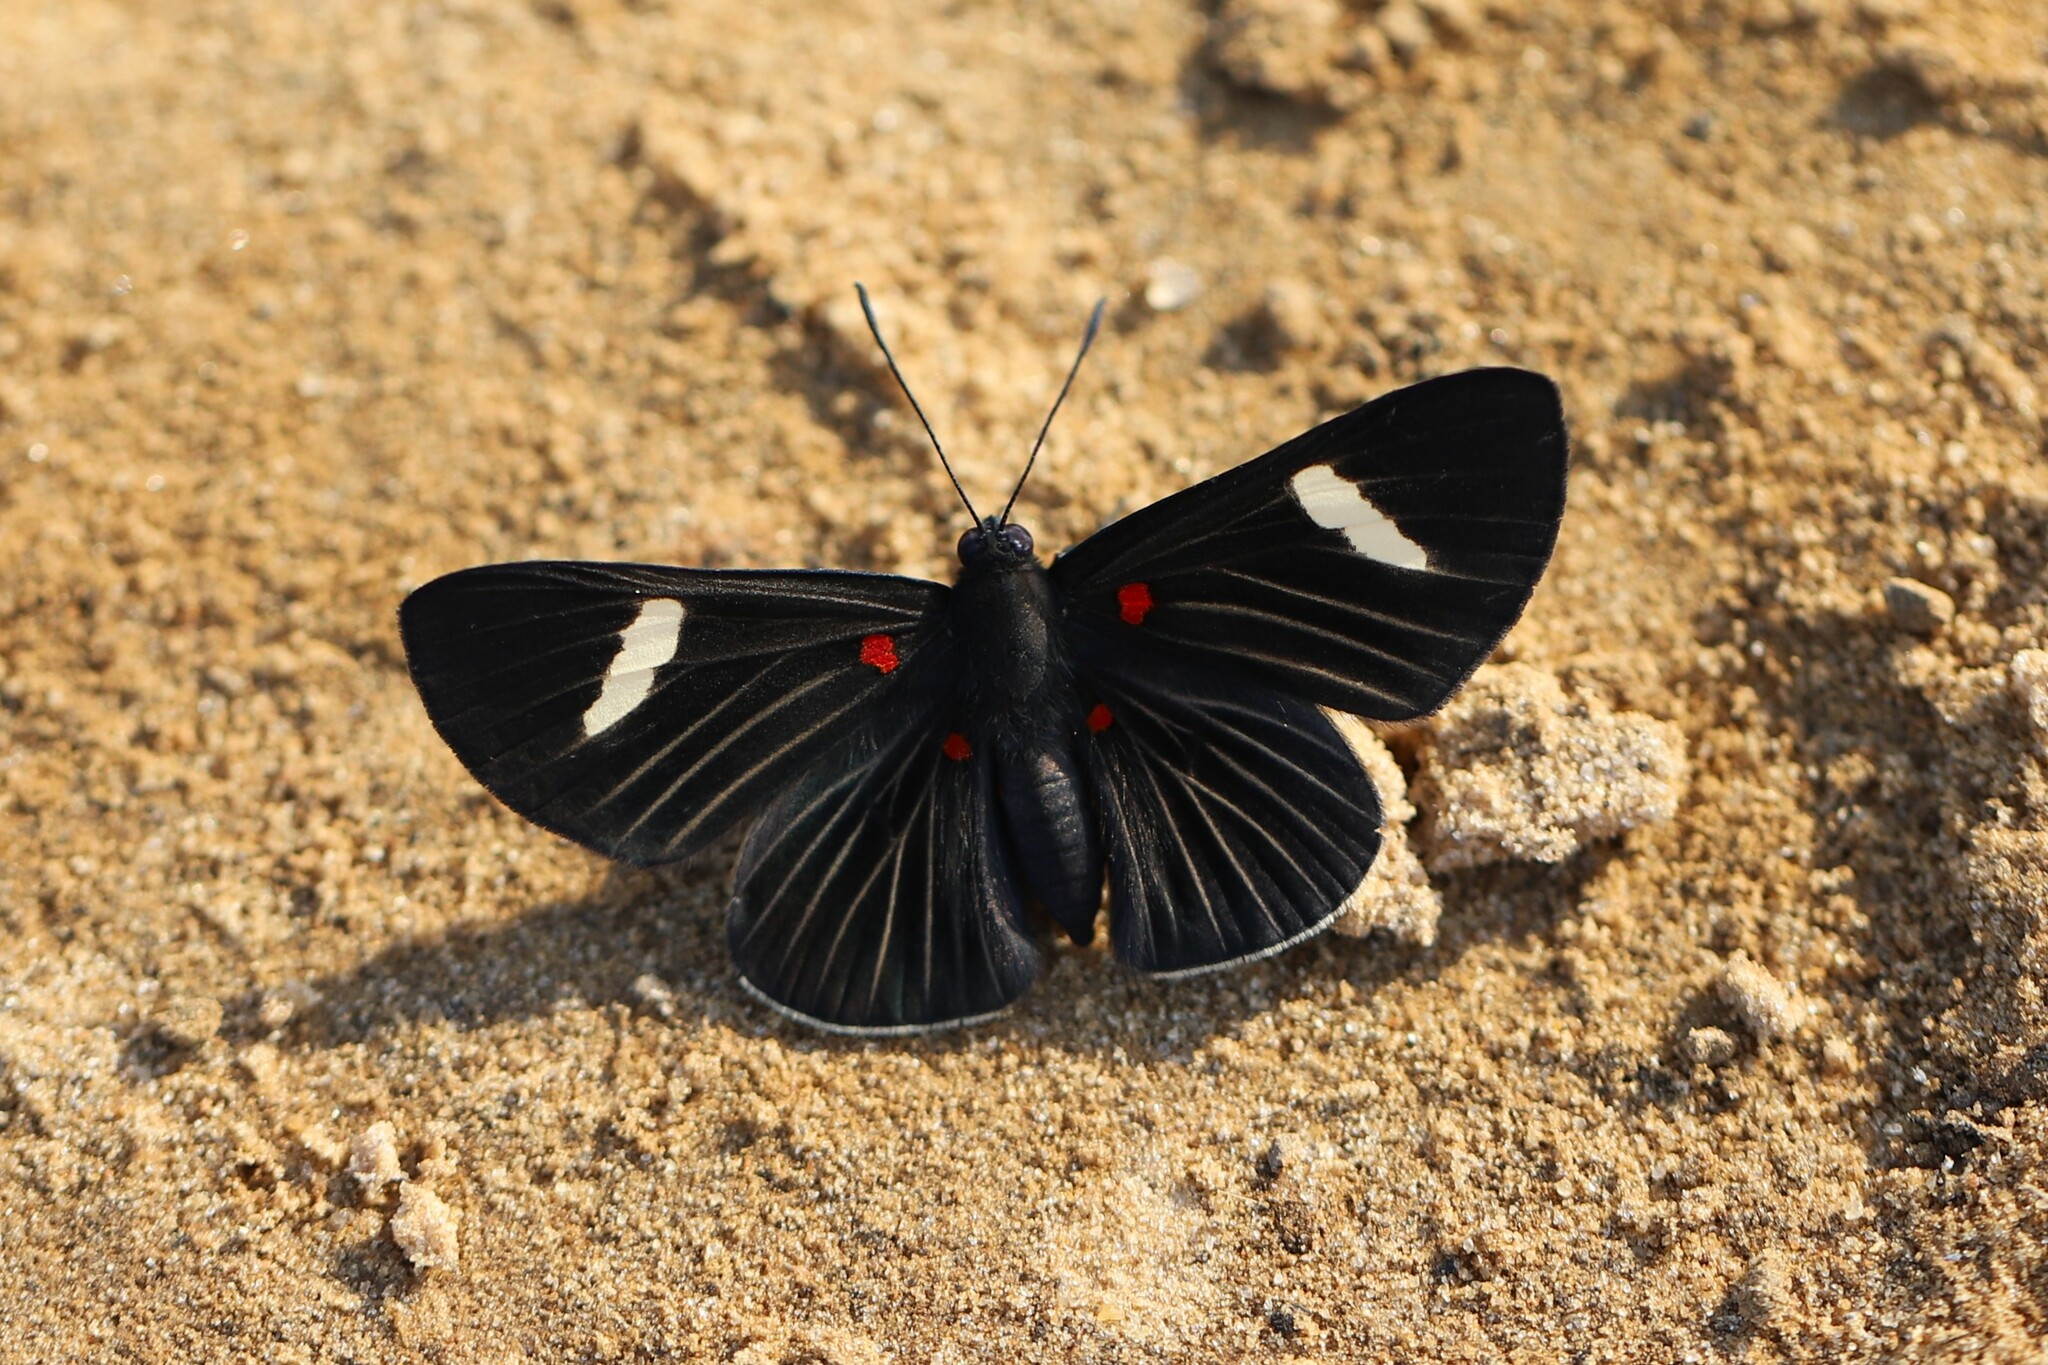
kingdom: Animalia
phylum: Arthropoda
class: Insecta
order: Lepidoptera
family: Lycaenidae
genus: Melanis
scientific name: Melanis aegates
